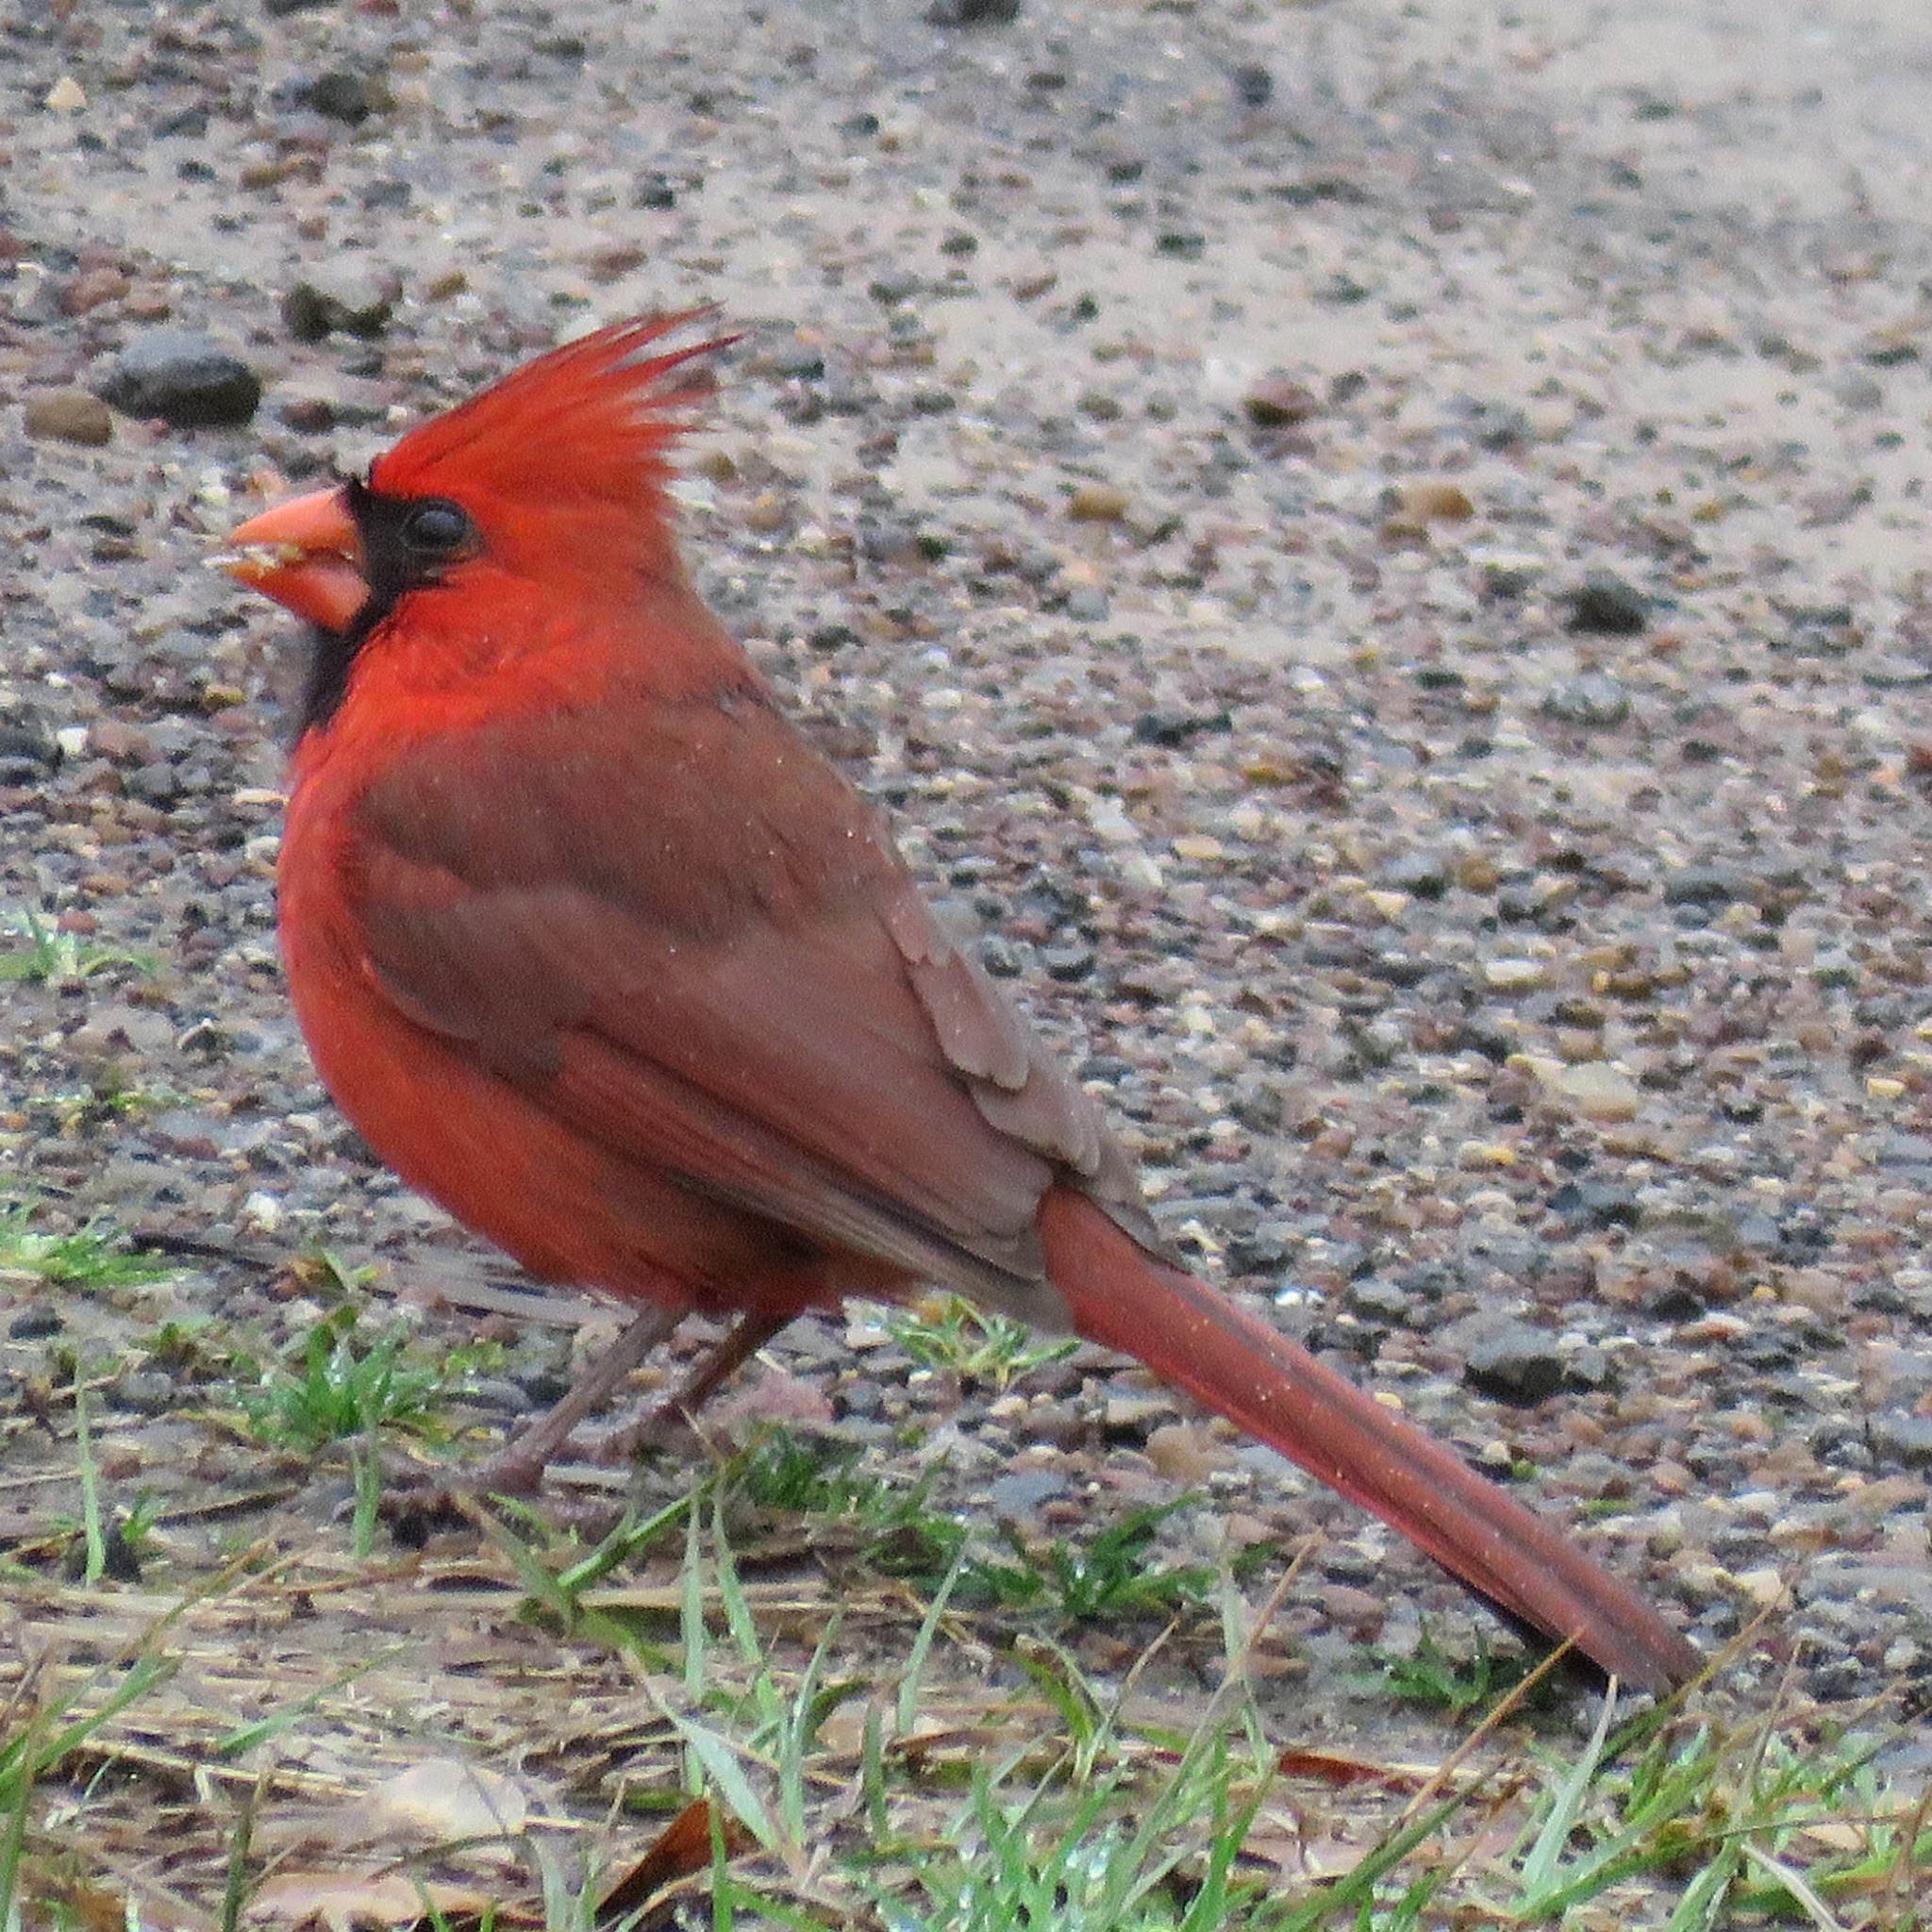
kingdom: Animalia
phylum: Chordata
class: Aves
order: Passeriformes
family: Cardinalidae
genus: Cardinalis
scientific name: Cardinalis cardinalis
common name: Northern cardinal
